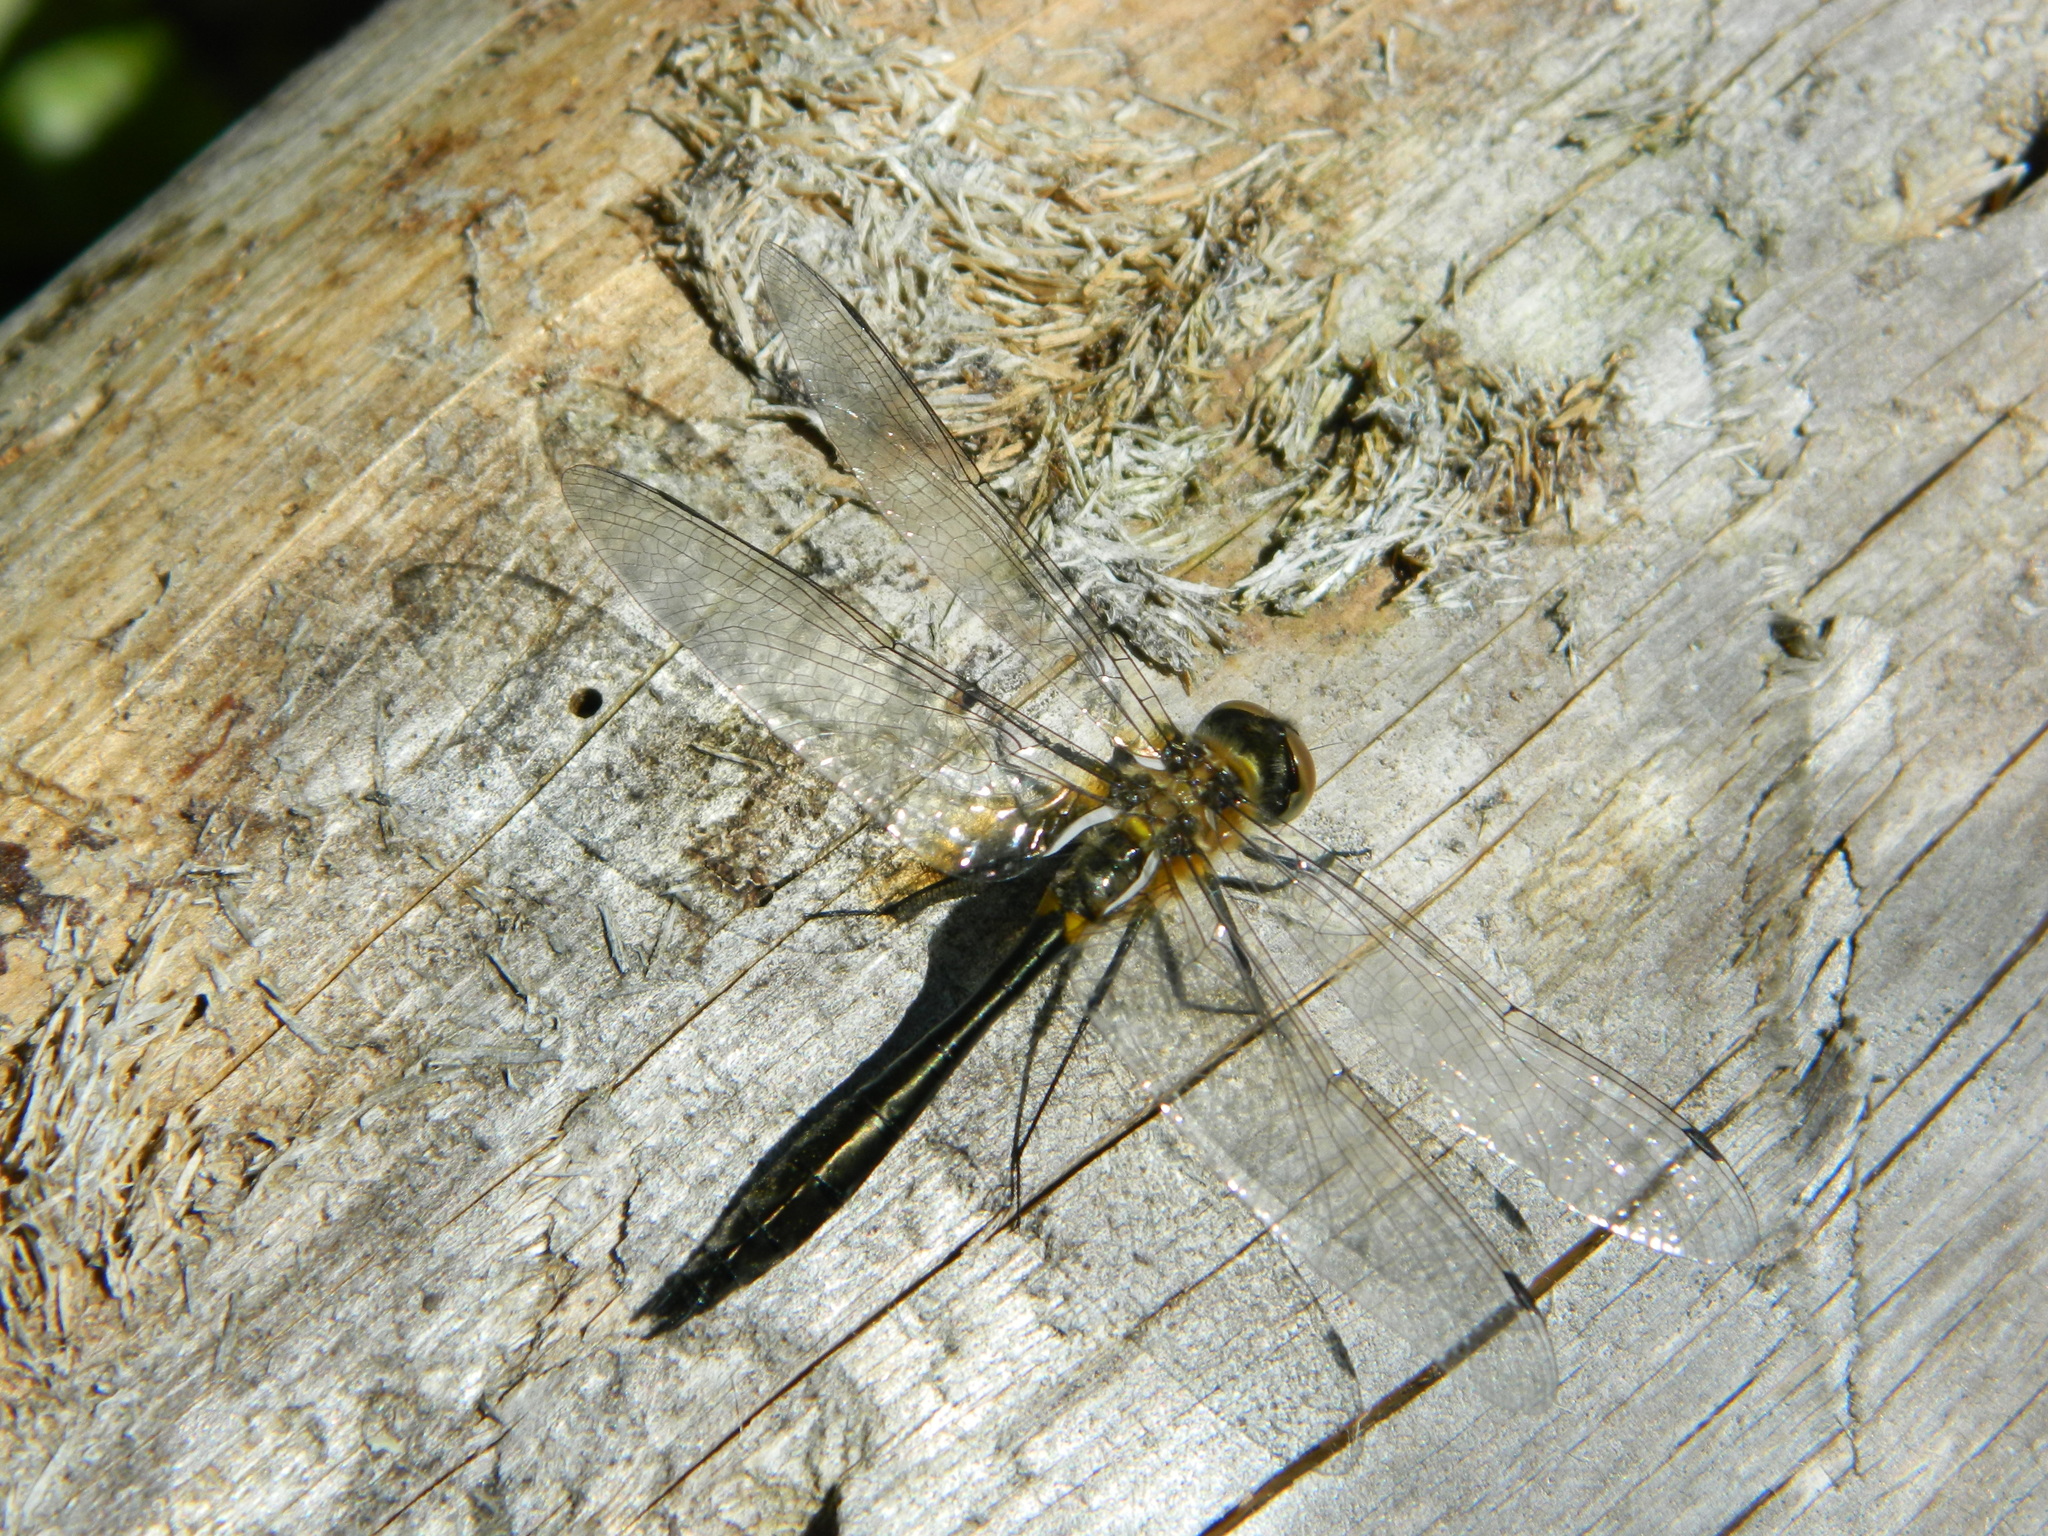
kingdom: Animalia
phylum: Arthropoda
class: Insecta
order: Odonata
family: Corduliidae
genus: Dorocordulia
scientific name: Dorocordulia libera
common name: Racket-tailed emerald
